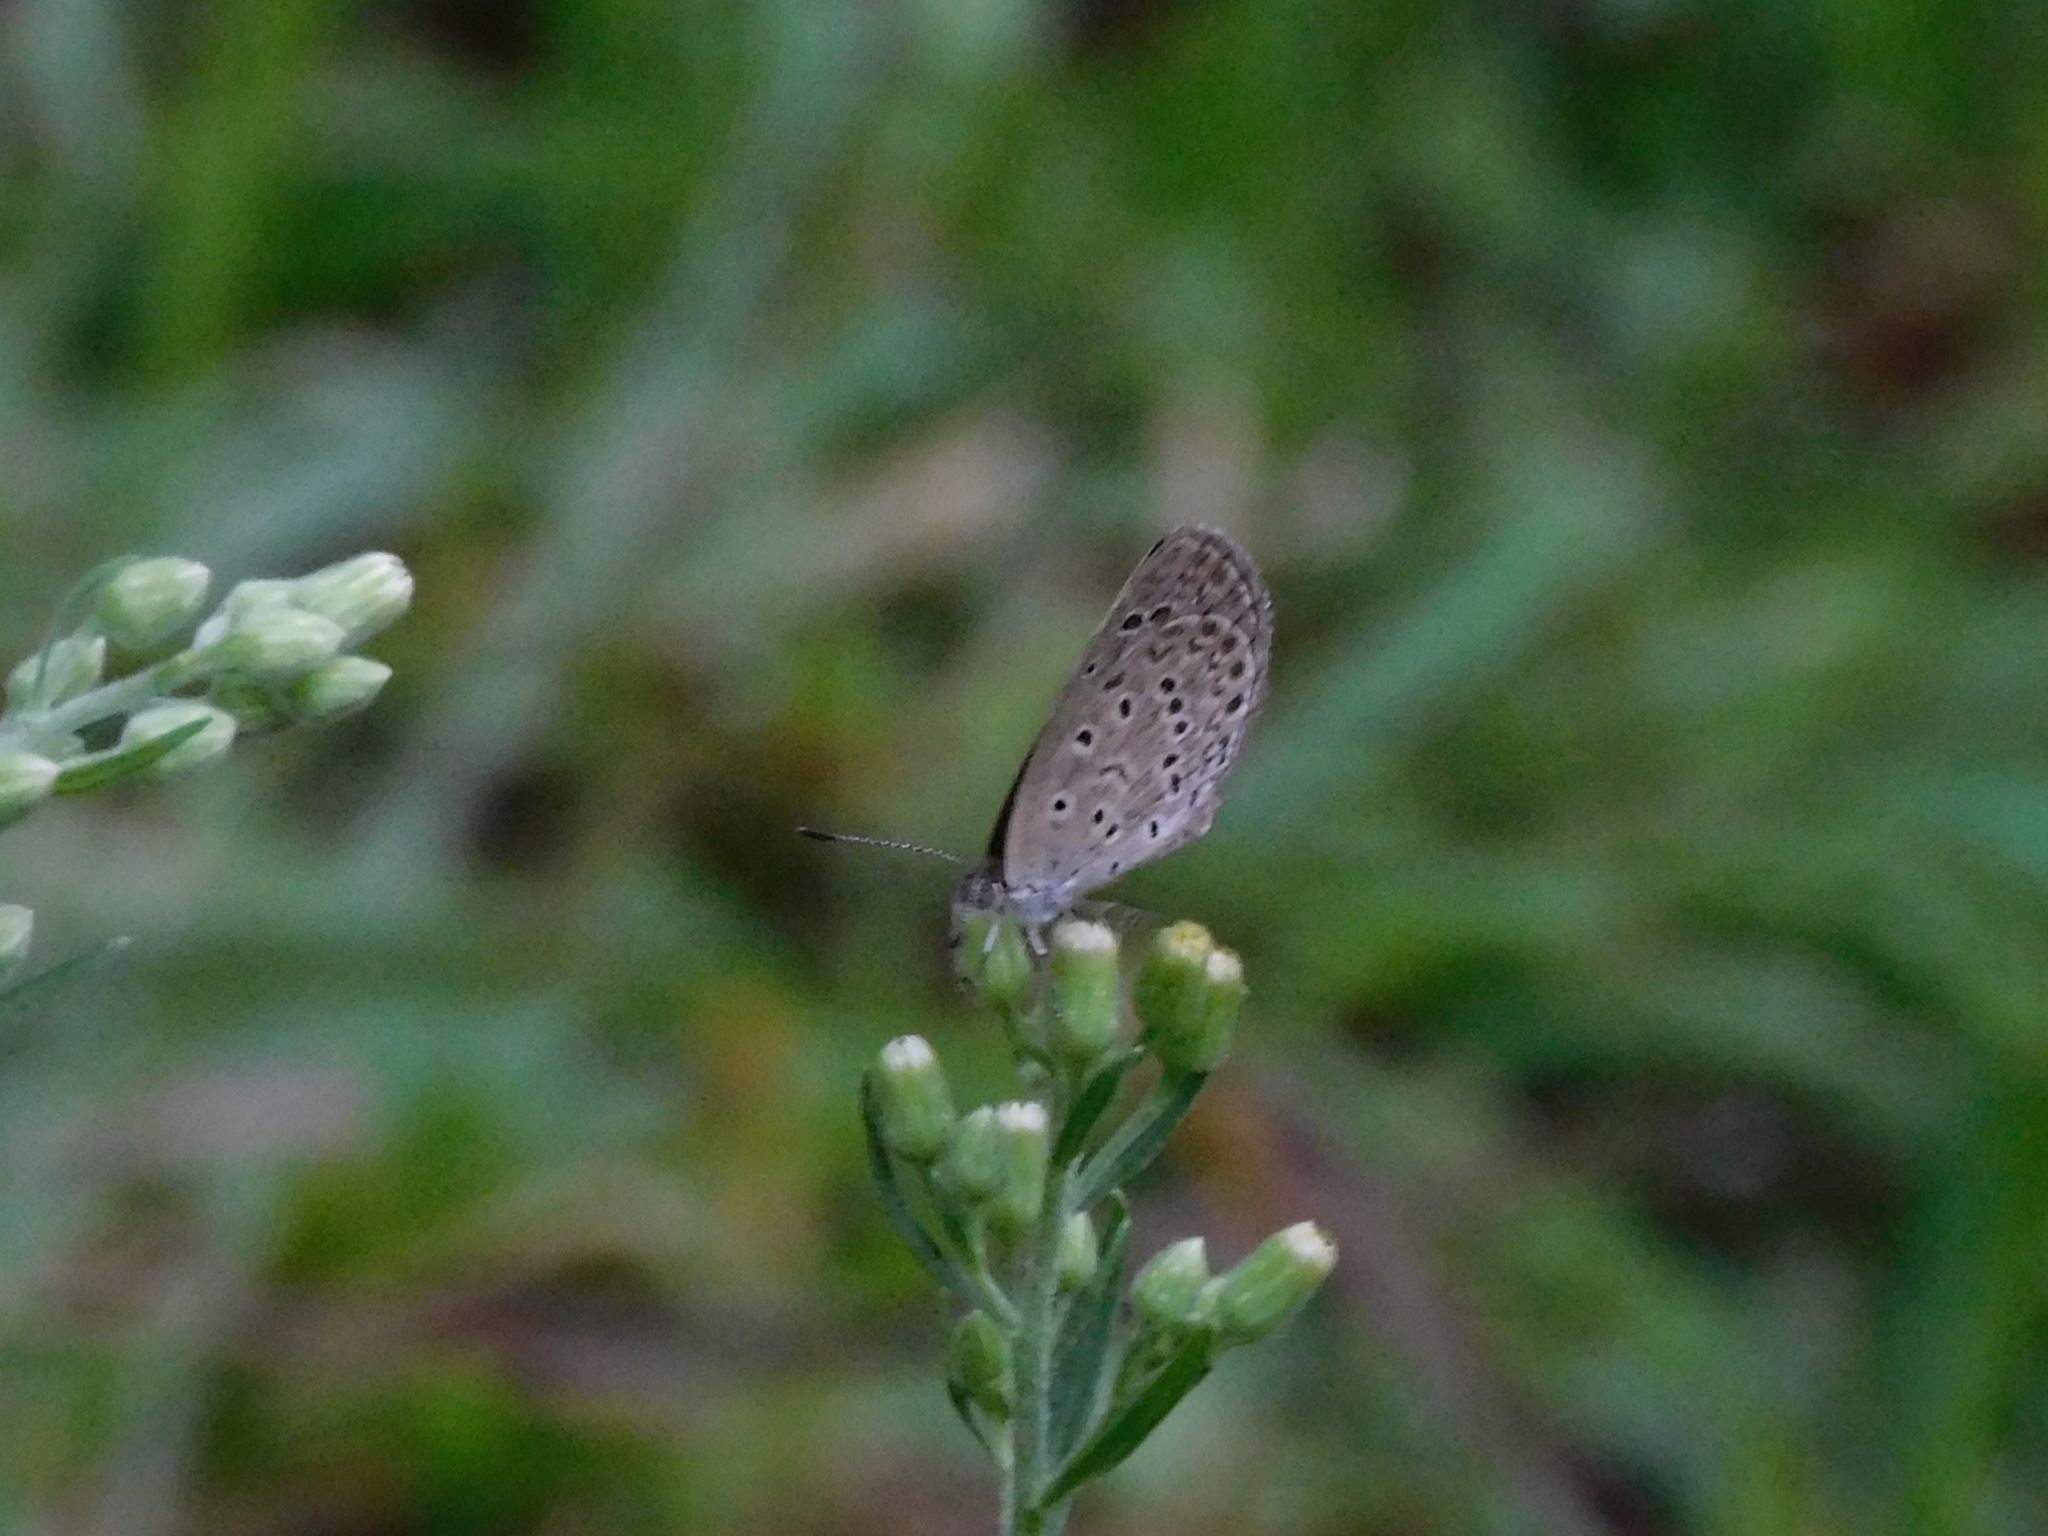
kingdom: Animalia
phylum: Arthropoda
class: Insecta
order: Lepidoptera
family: Lycaenidae
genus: Zizeeria
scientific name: Zizeeria karsandra
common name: Dark grass blue
